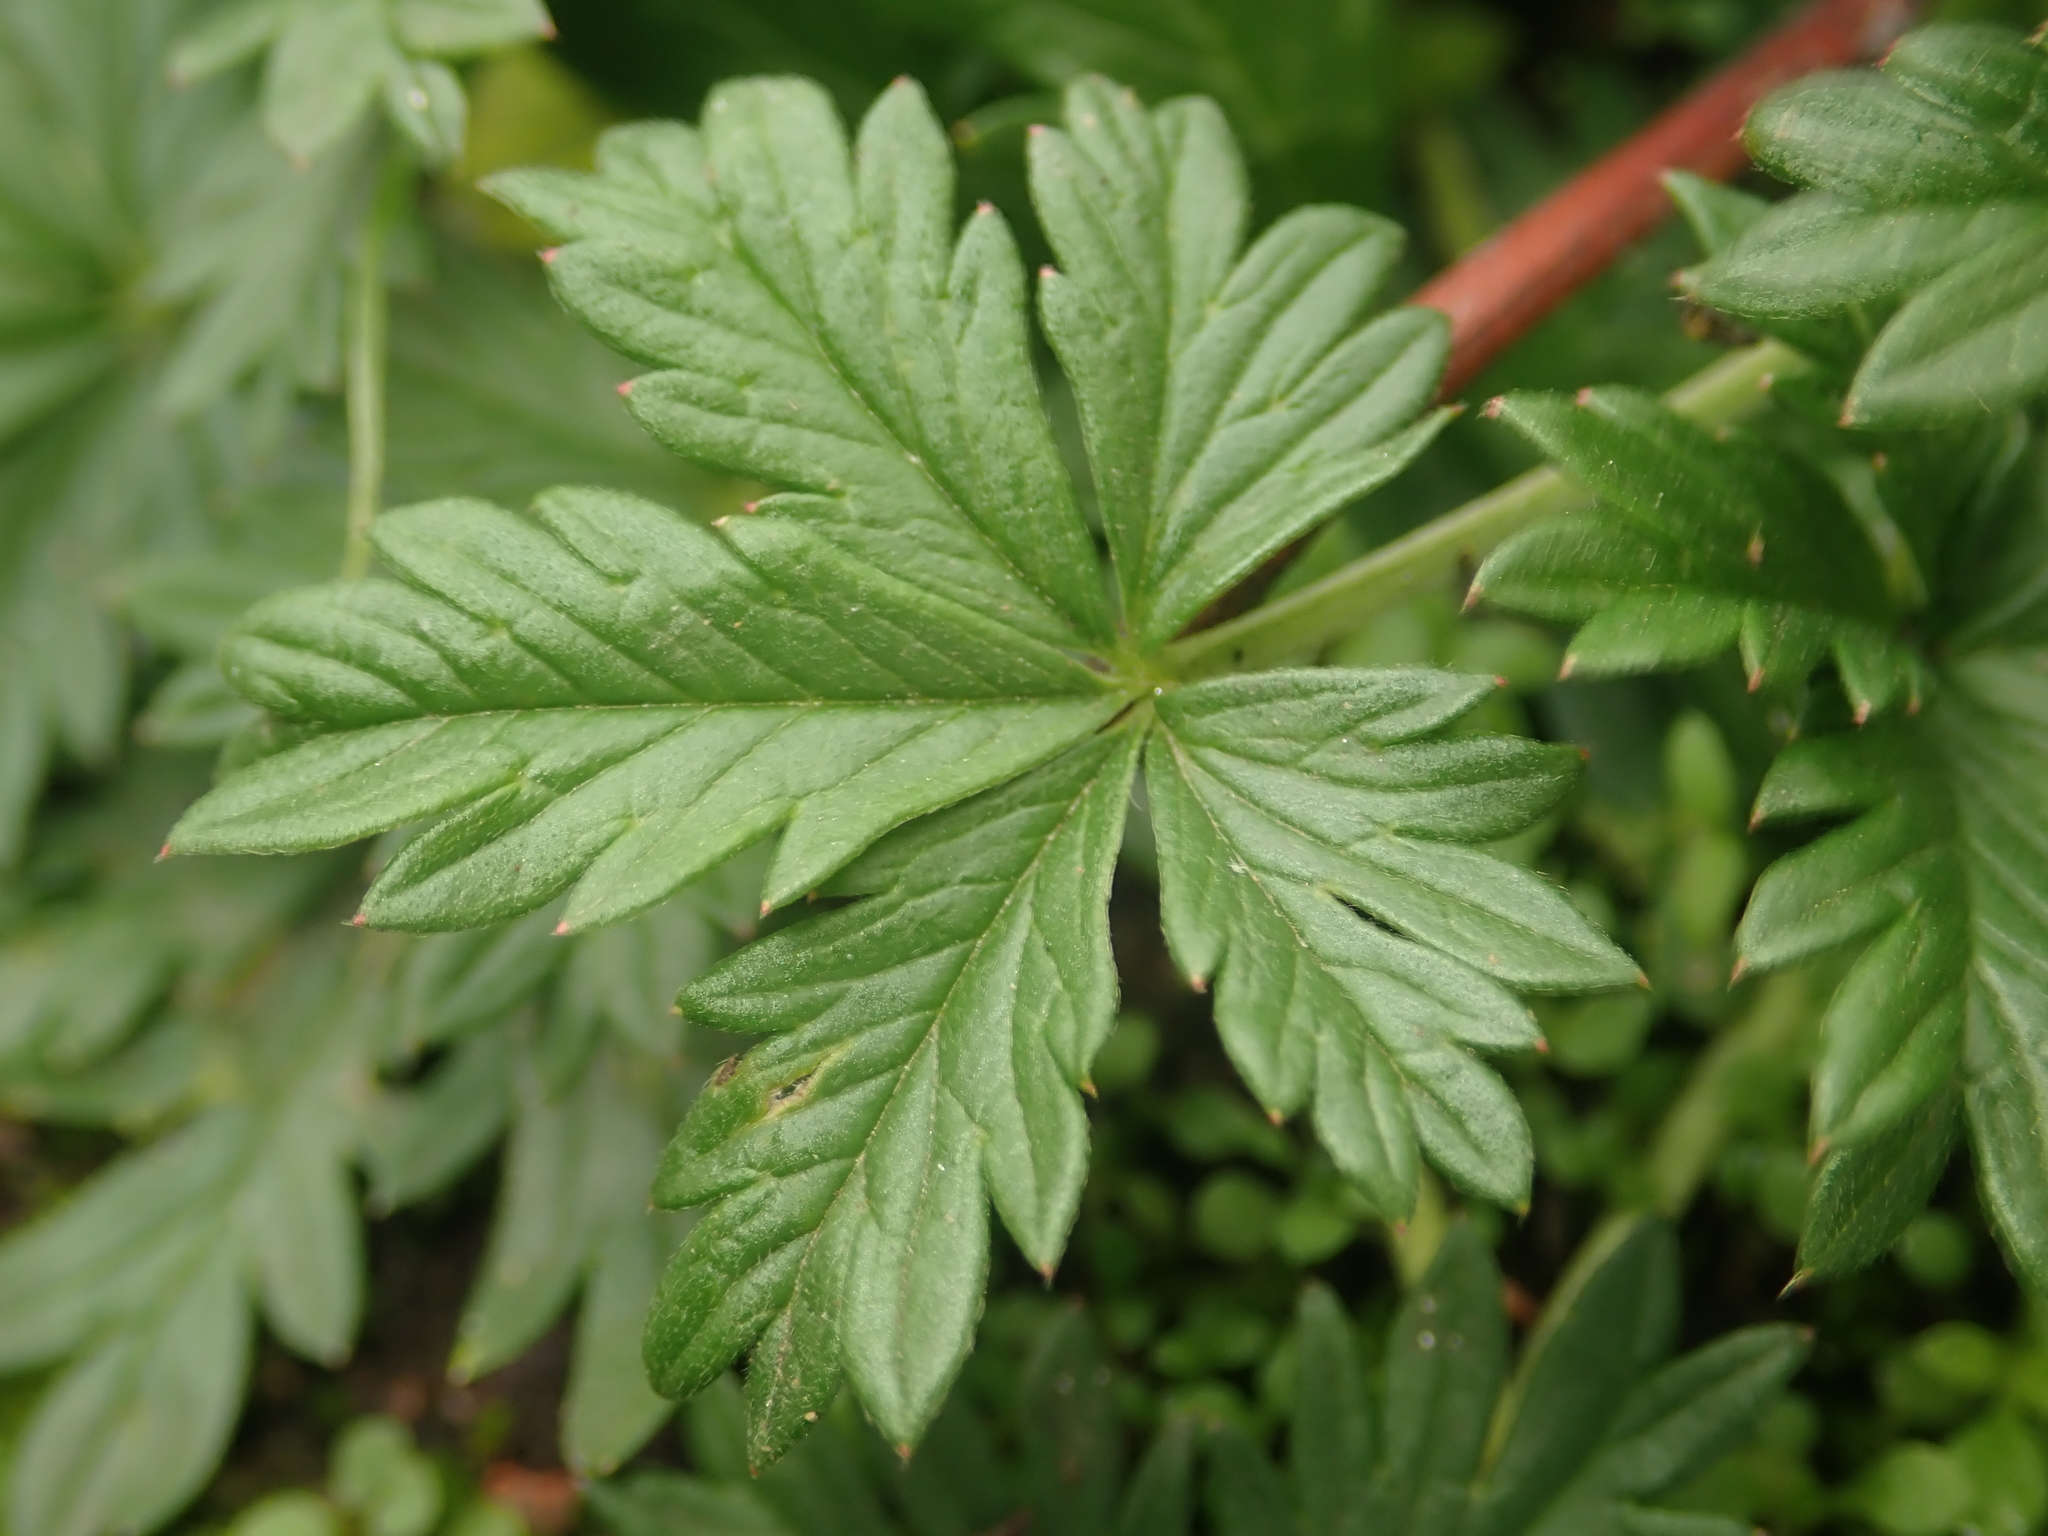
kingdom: Plantae
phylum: Tracheophyta
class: Magnoliopsida
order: Rosales
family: Rosaceae
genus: Potentilla
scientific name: Potentilla argentea
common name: Hoary cinquefoil
